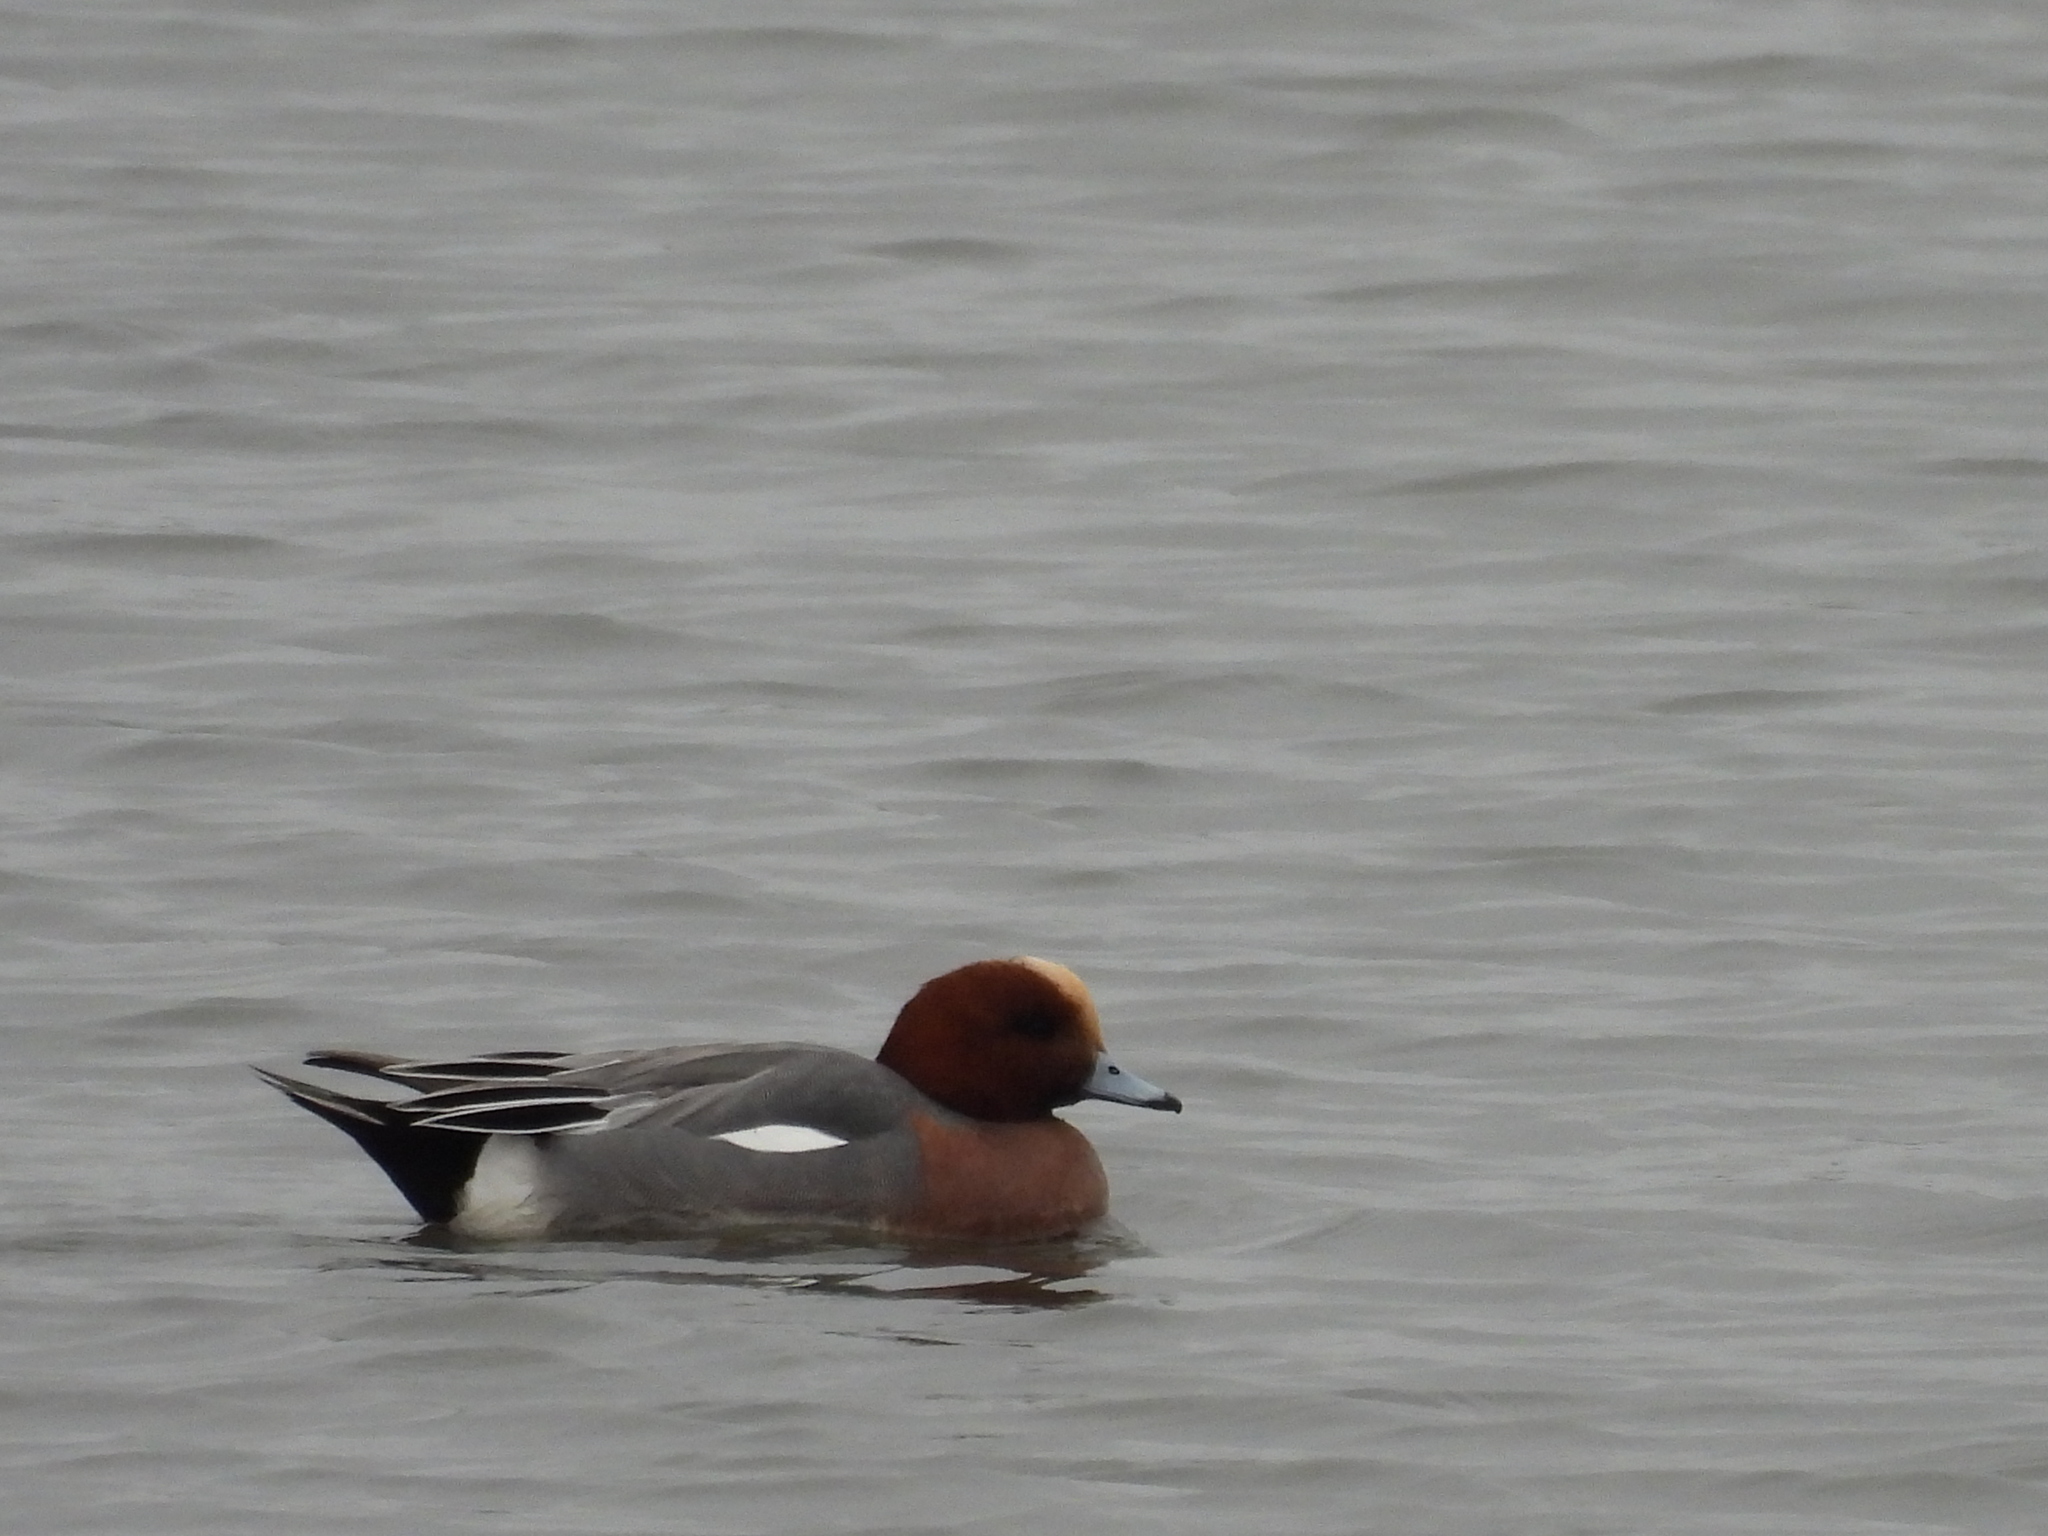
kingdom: Animalia
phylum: Chordata
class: Aves
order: Anseriformes
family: Anatidae
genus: Mareca
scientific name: Mareca penelope
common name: Eurasian wigeon
